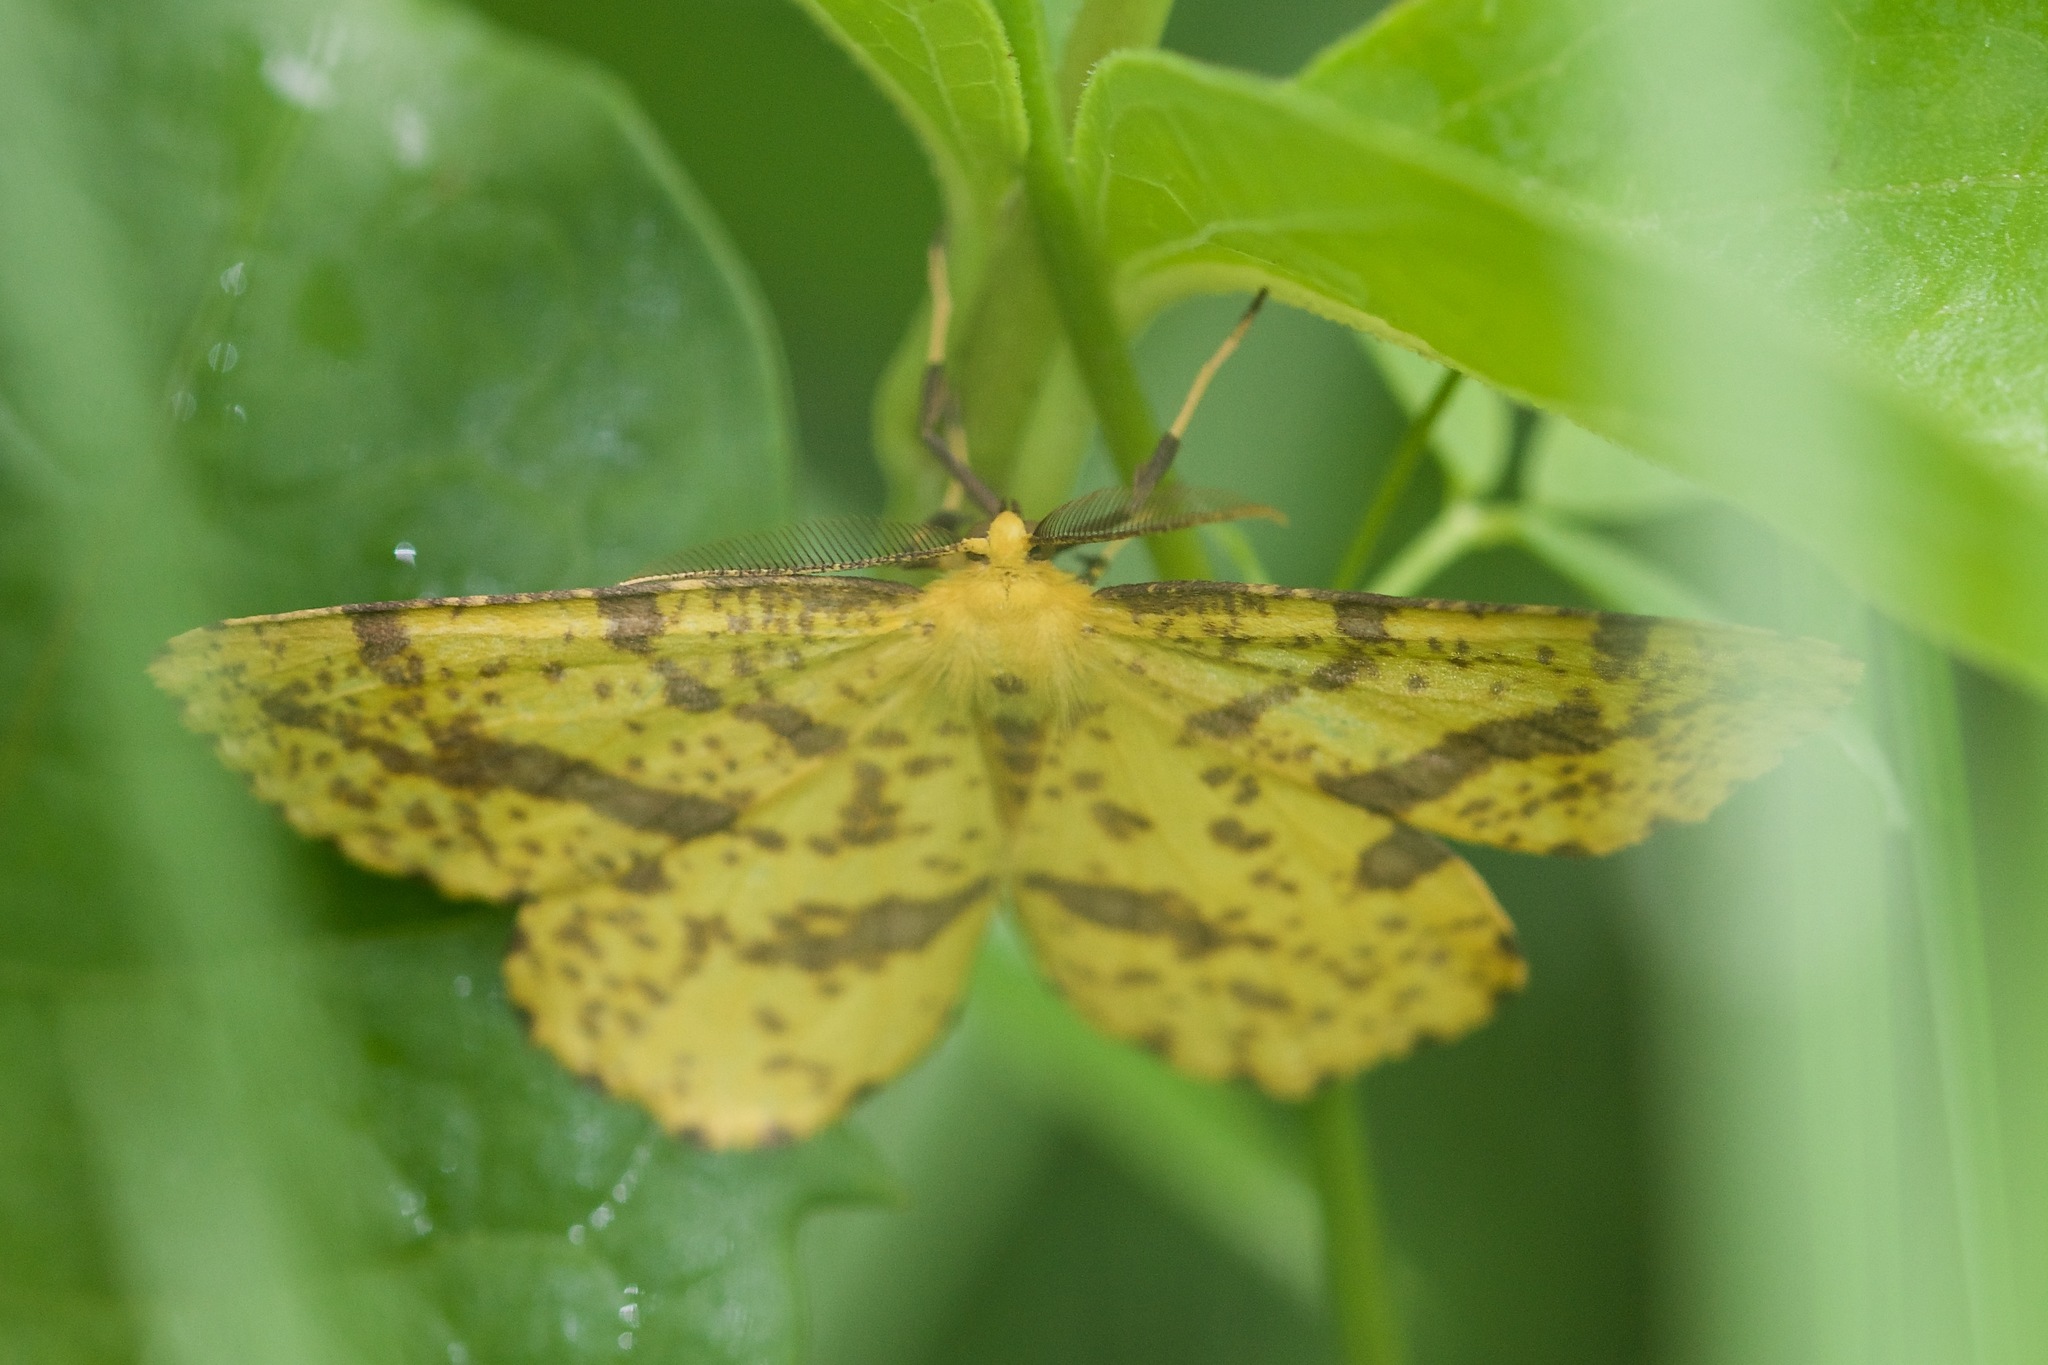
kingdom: Animalia
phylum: Arthropoda
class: Insecta
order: Lepidoptera
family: Geometridae
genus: Xanthotype
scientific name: Xanthotype
